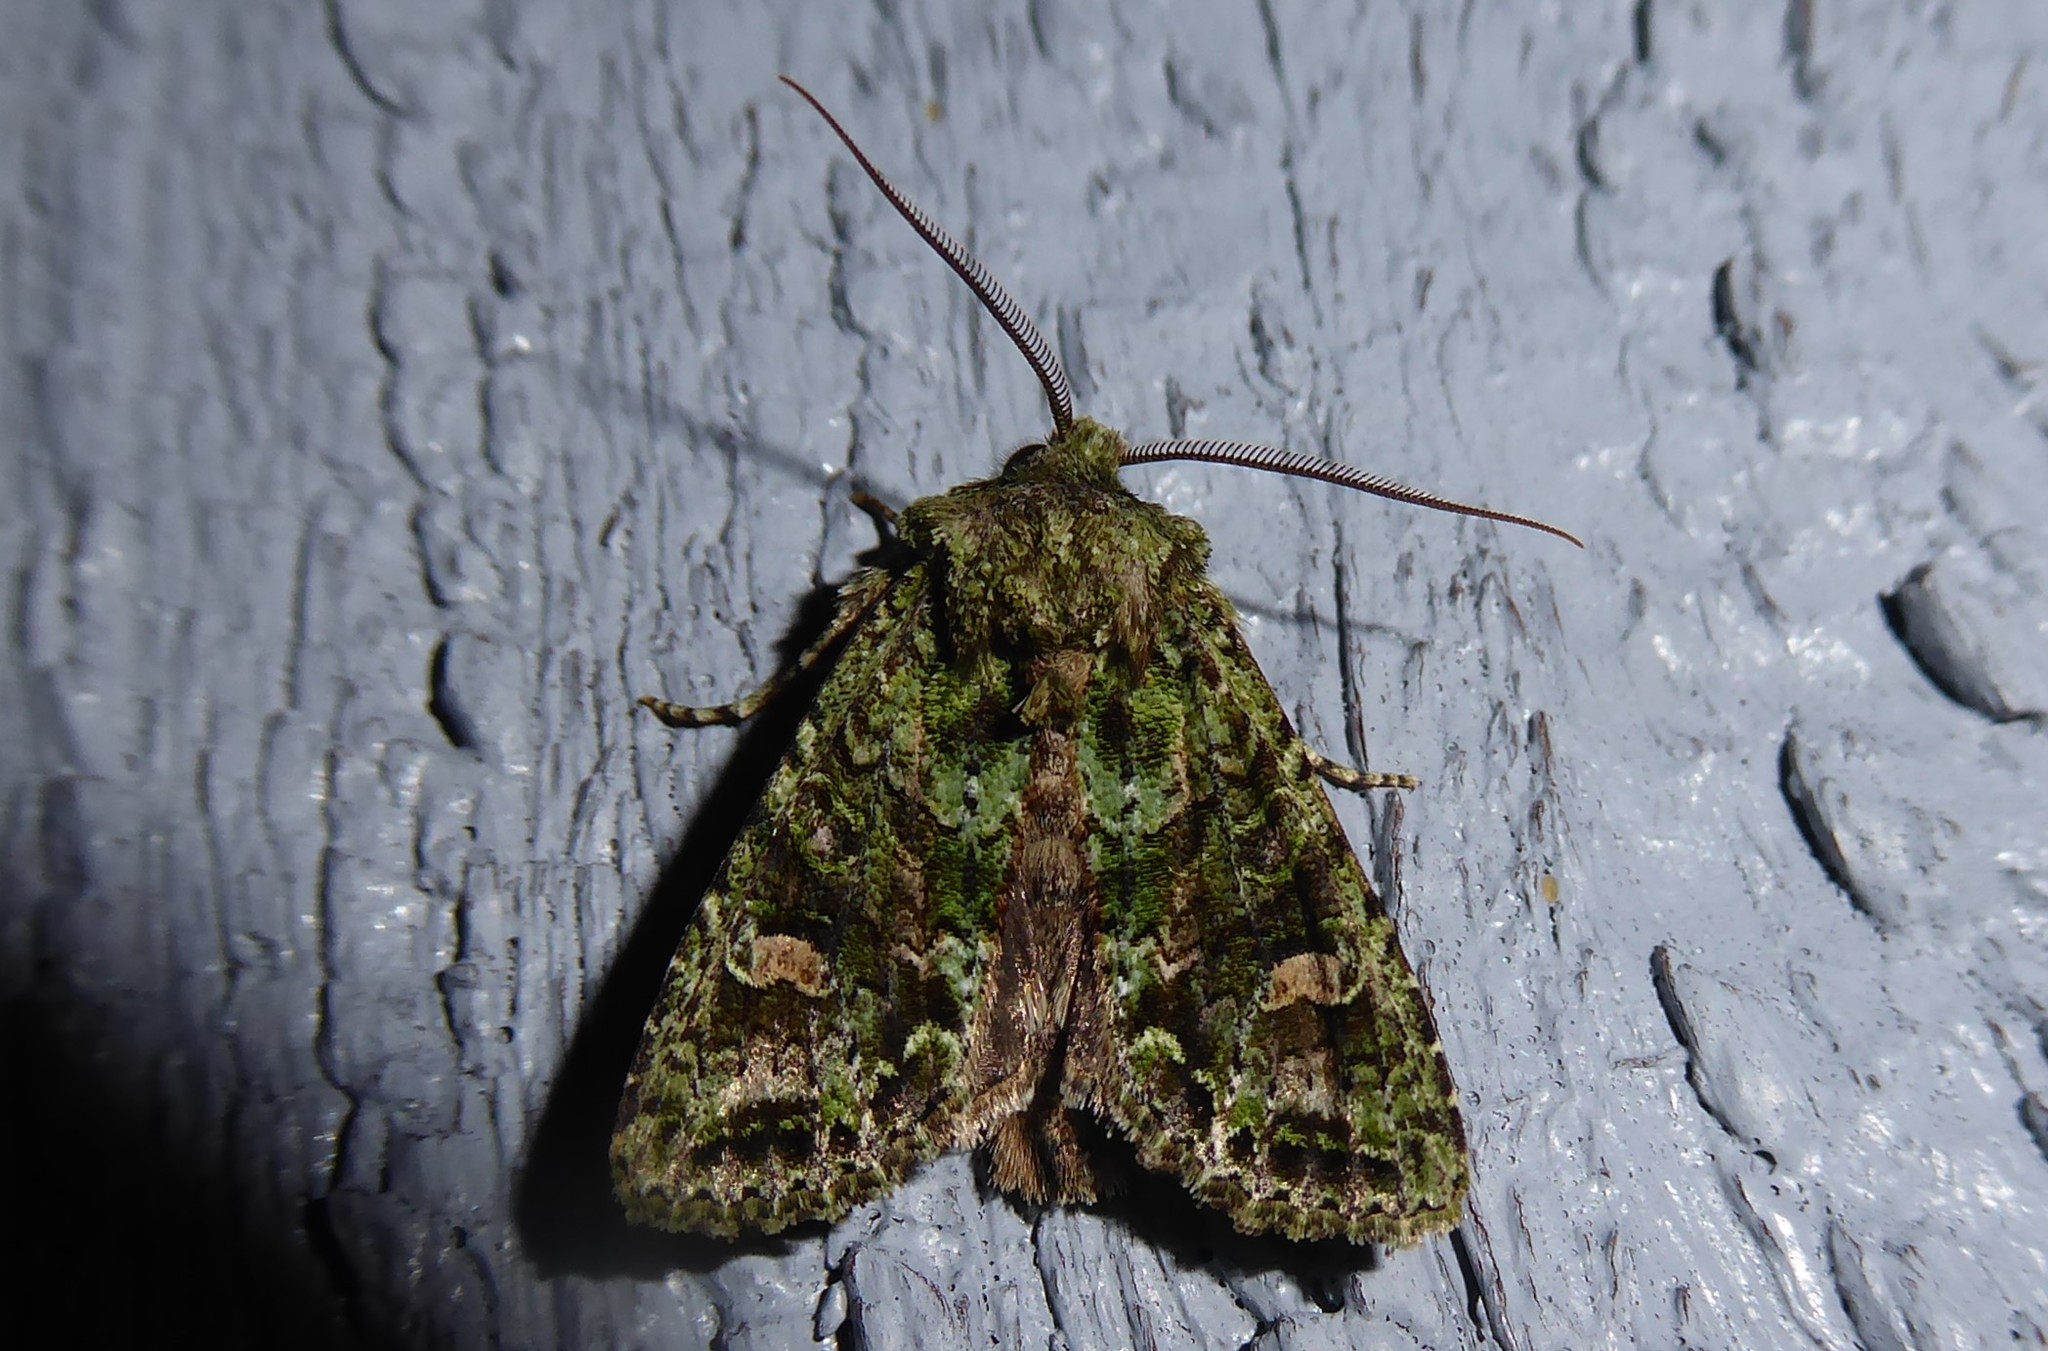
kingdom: Animalia
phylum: Arthropoda
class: Insecta
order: Lepidoptera
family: Noctuidae
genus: Ichneutica
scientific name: Ichneutica
